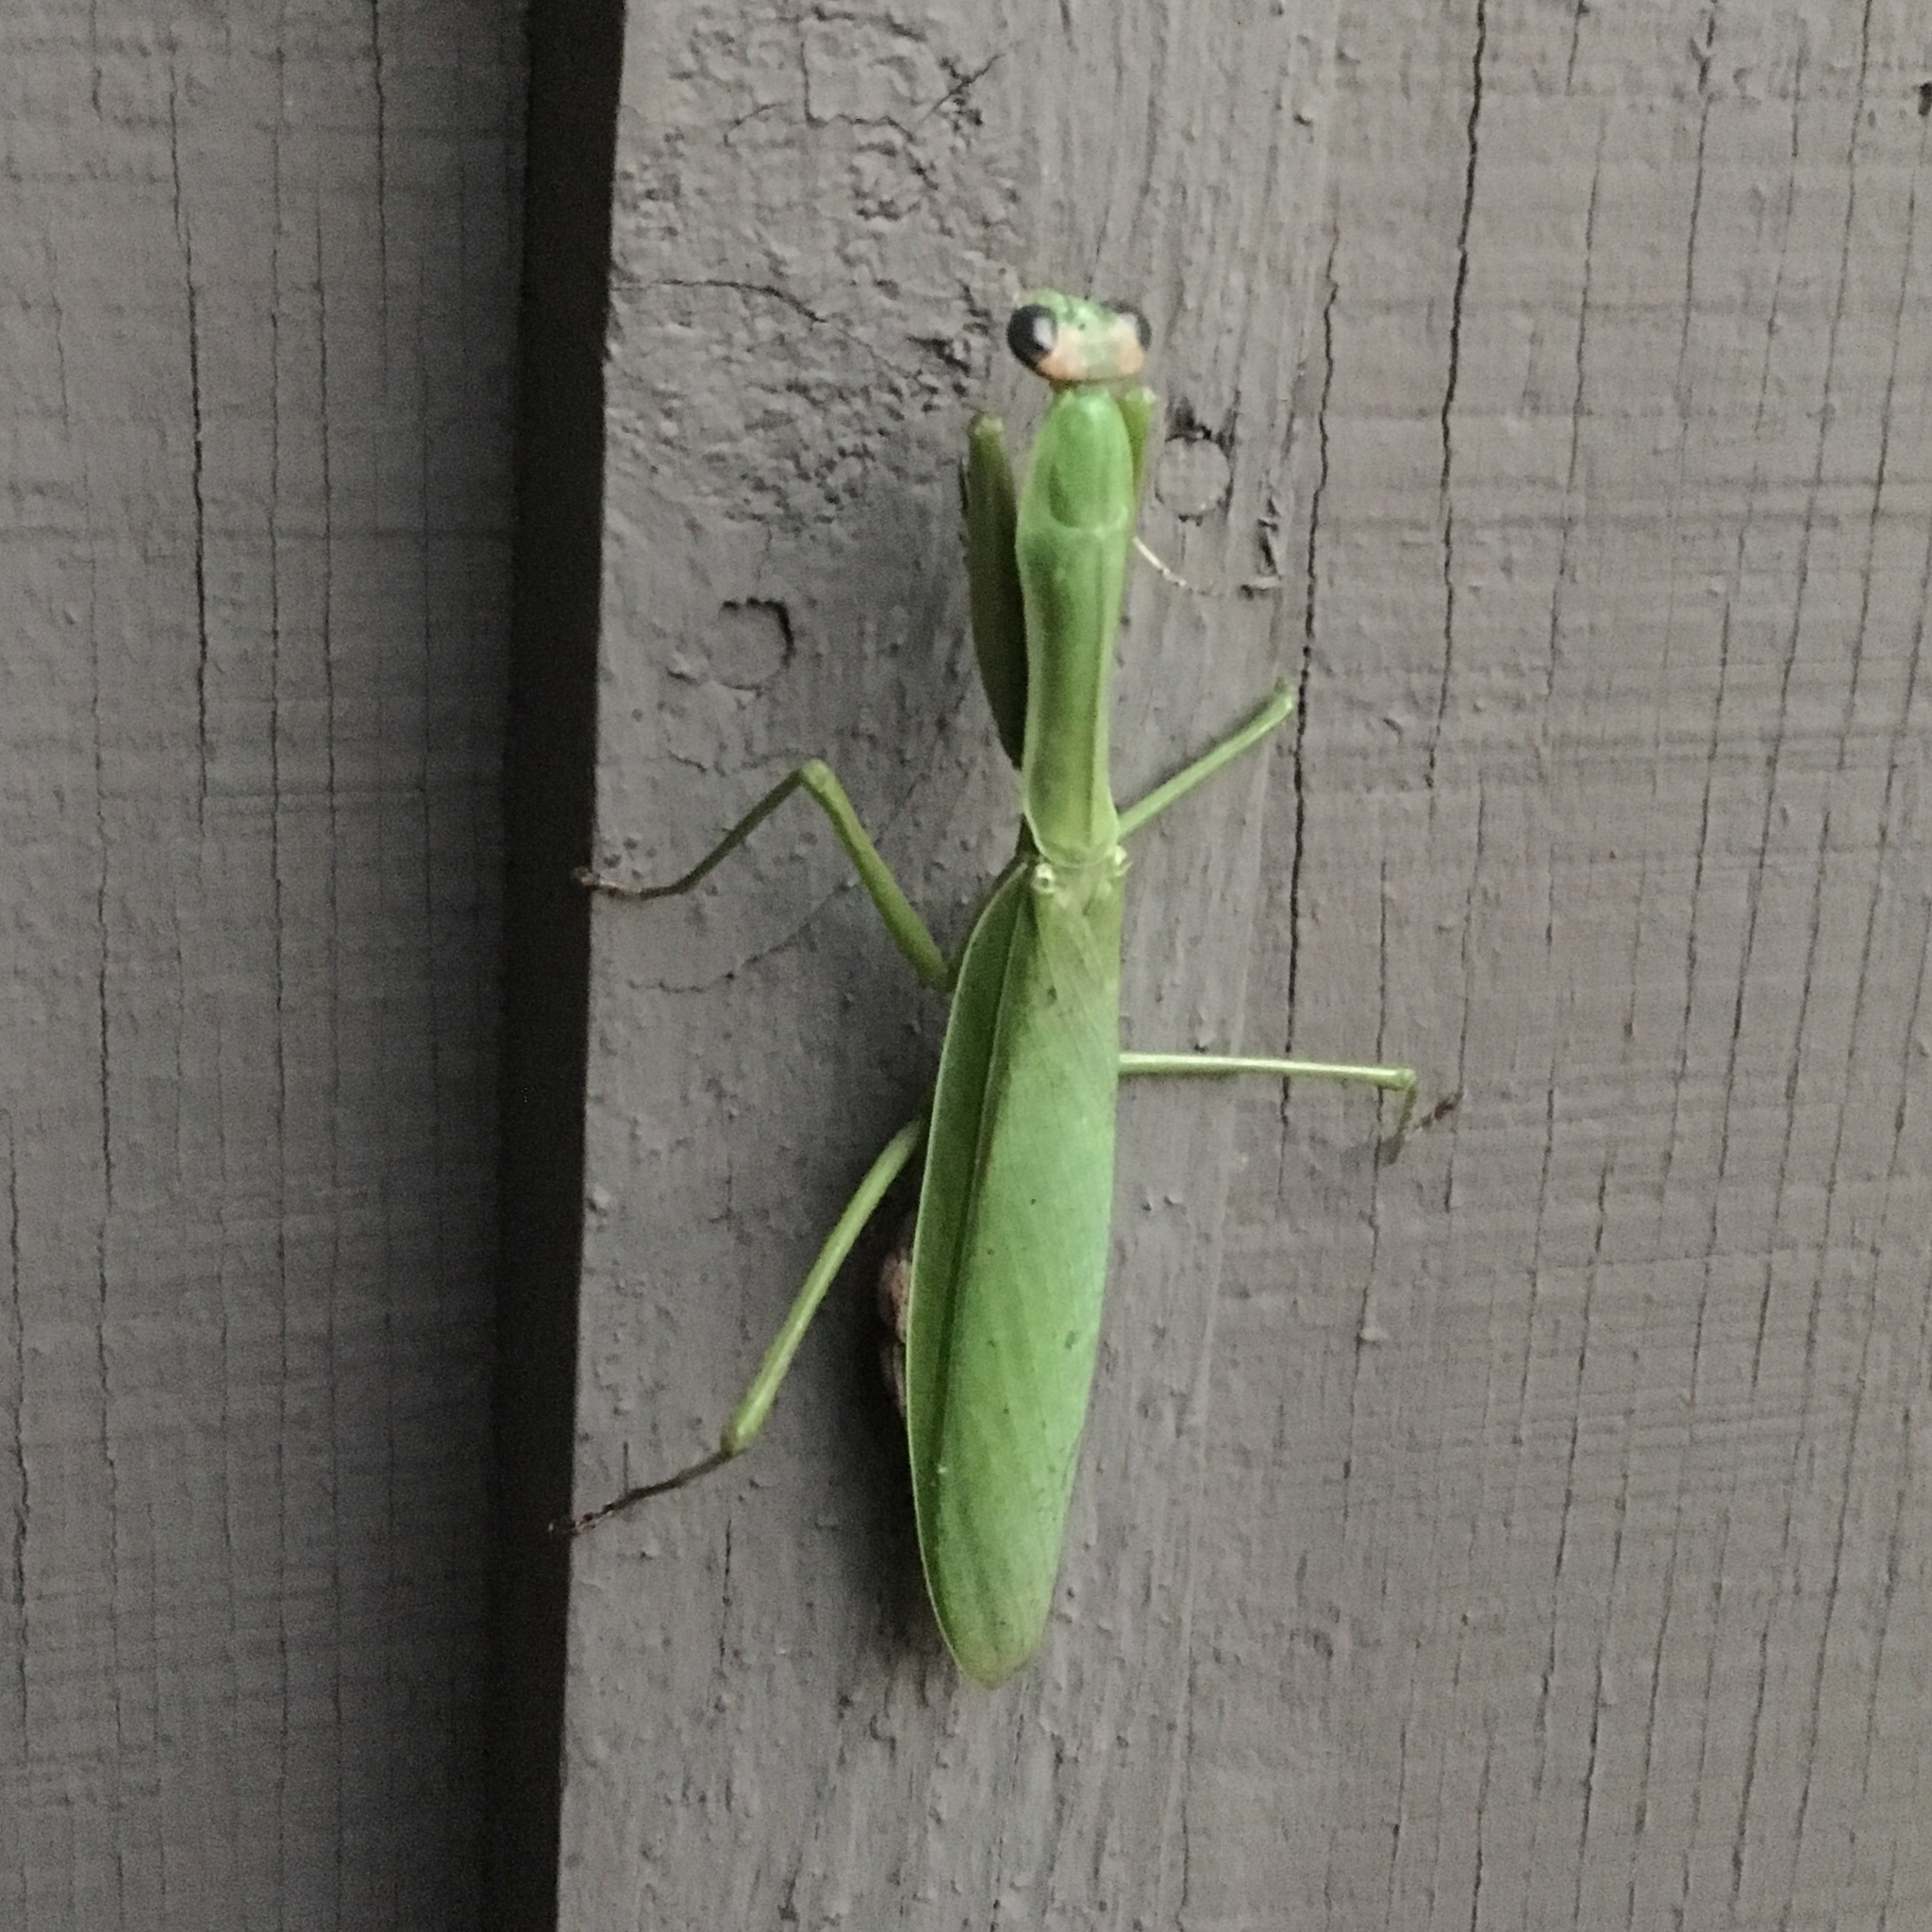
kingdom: Animalia
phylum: Arthropoda
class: Insecta
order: Mantodea
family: Mantidae
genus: Mantis
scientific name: Mantis religiosa
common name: Praying mantis
